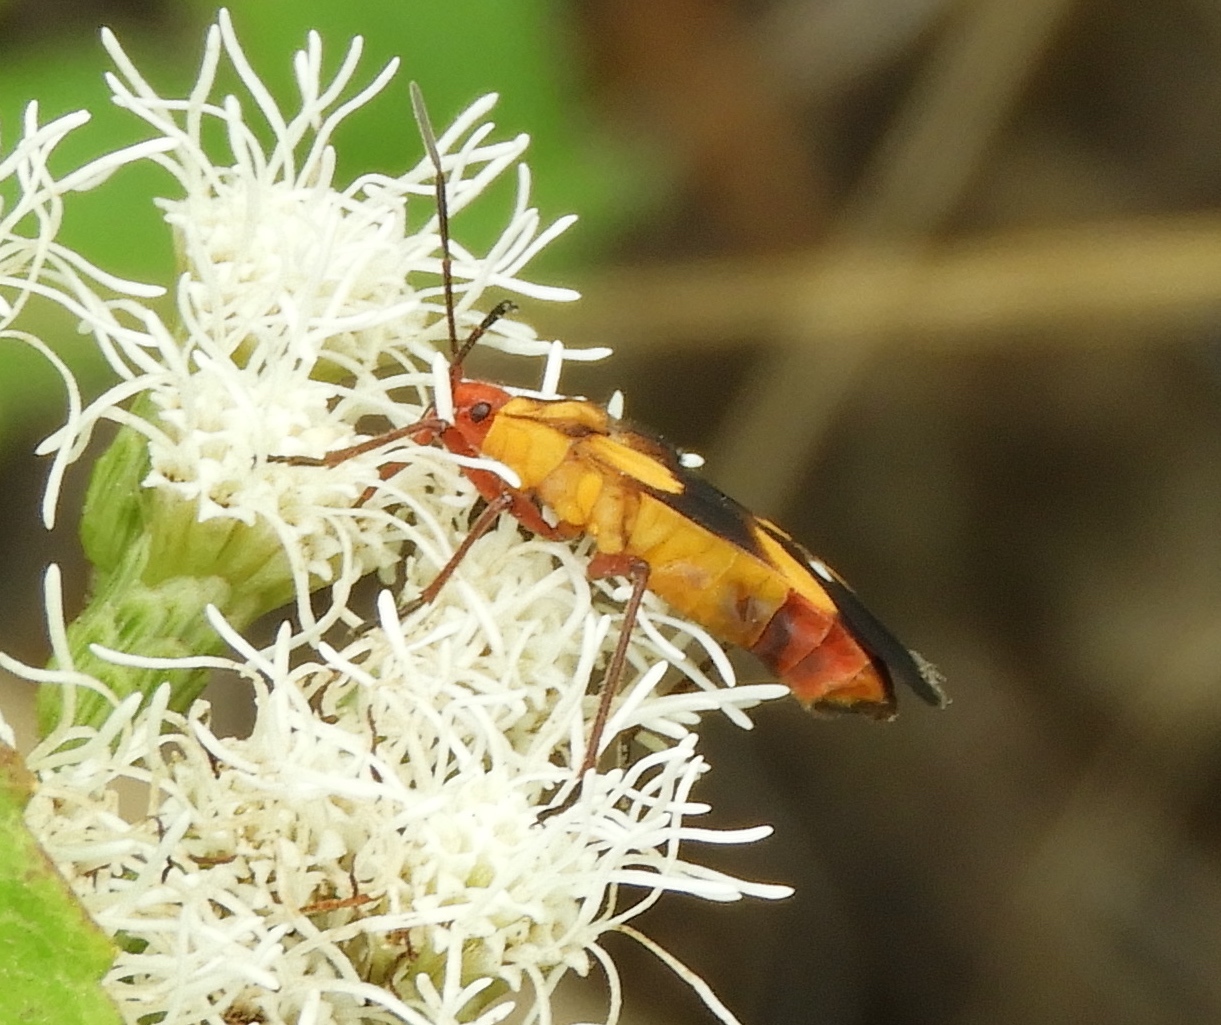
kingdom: Animalia
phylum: Arthropoda
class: Insecta
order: Hemiptera
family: Lygaeidae
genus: Oncopeltus
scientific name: Oncopeltus guttaloides
